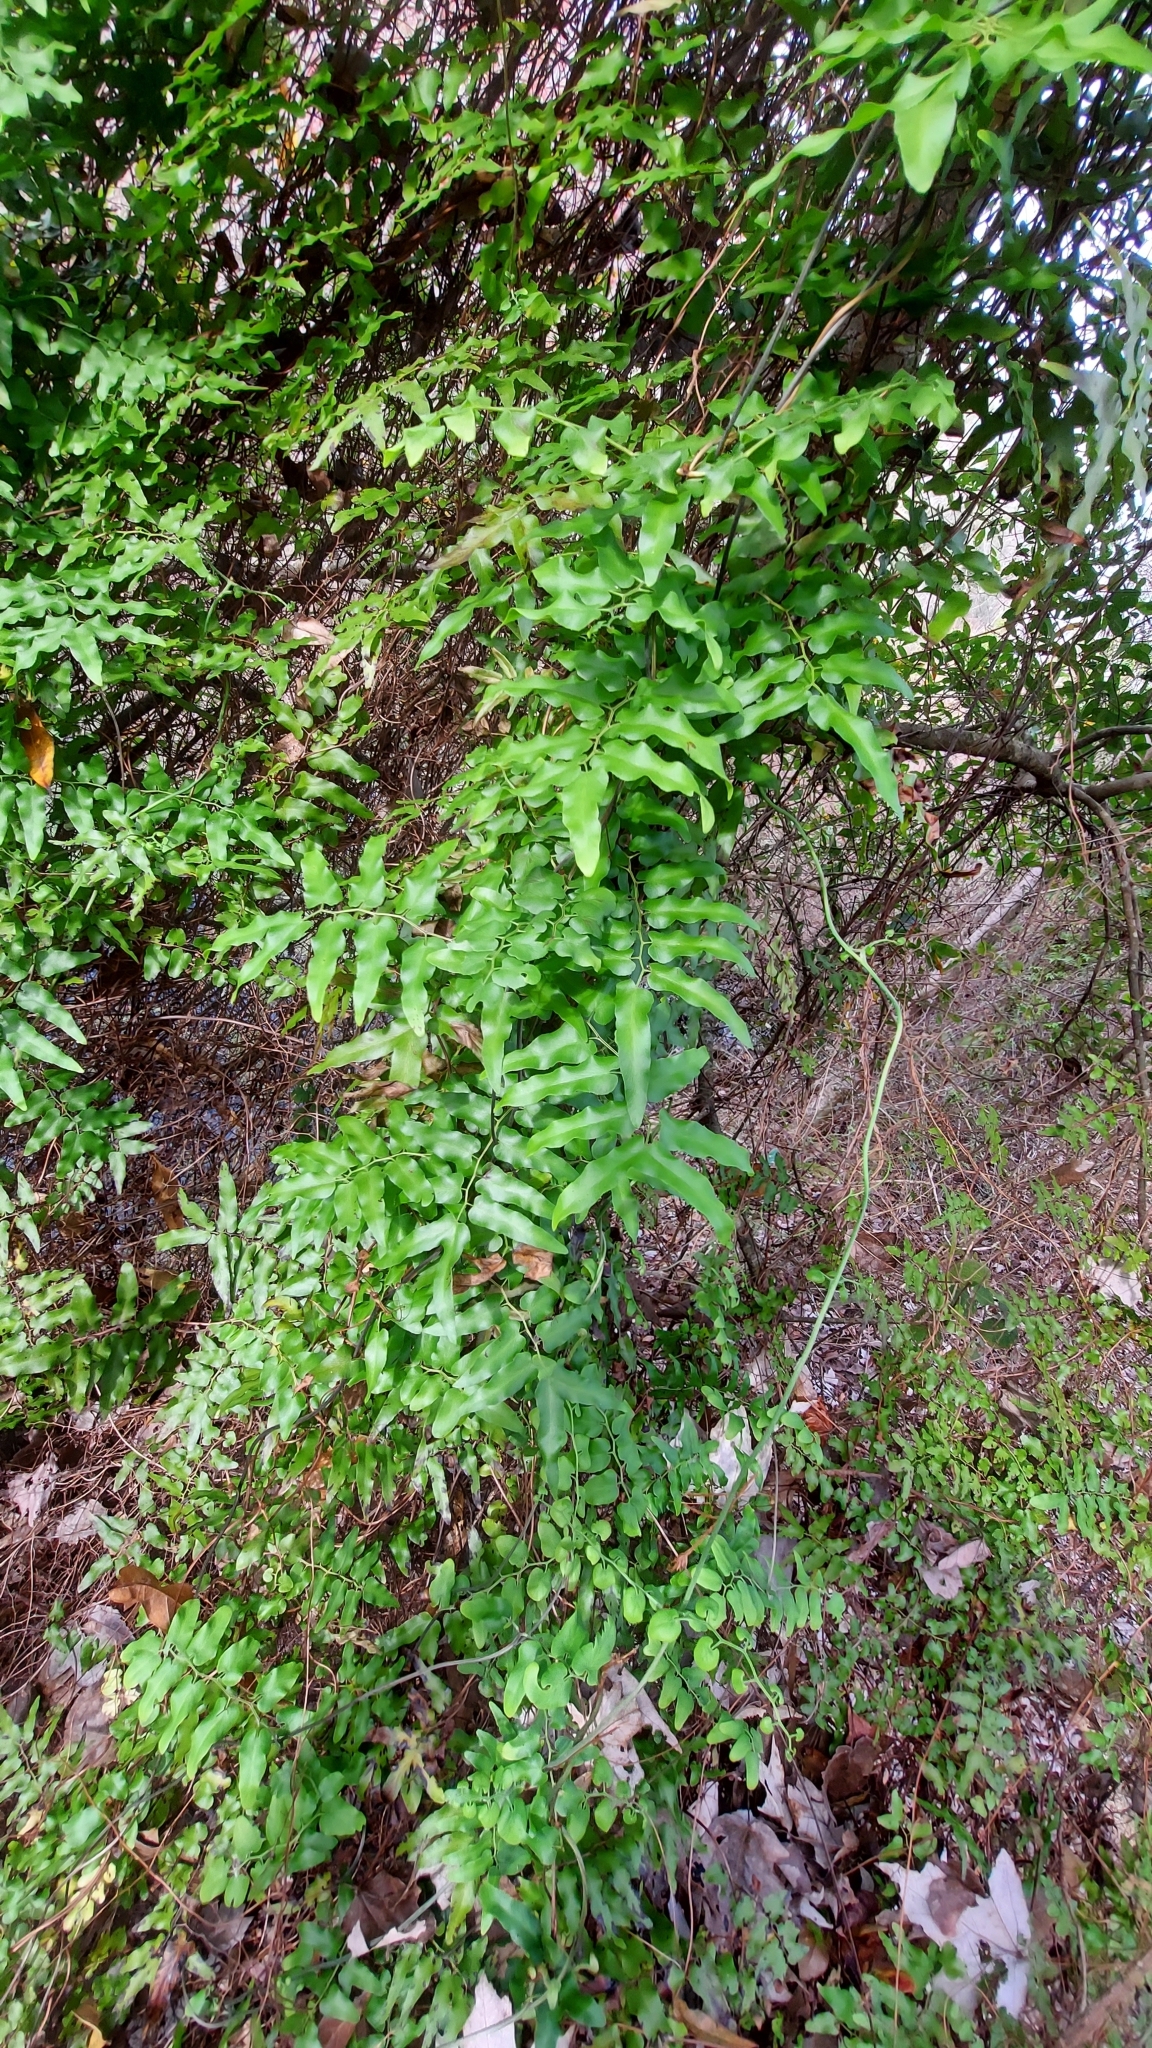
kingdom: Plantae
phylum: Tracheophyta
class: Polypodiopsida
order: Schizaeales
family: Lygodiaceae
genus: Lygodium
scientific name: Lygodium microphyllum
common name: Small-leaf climbing fern
